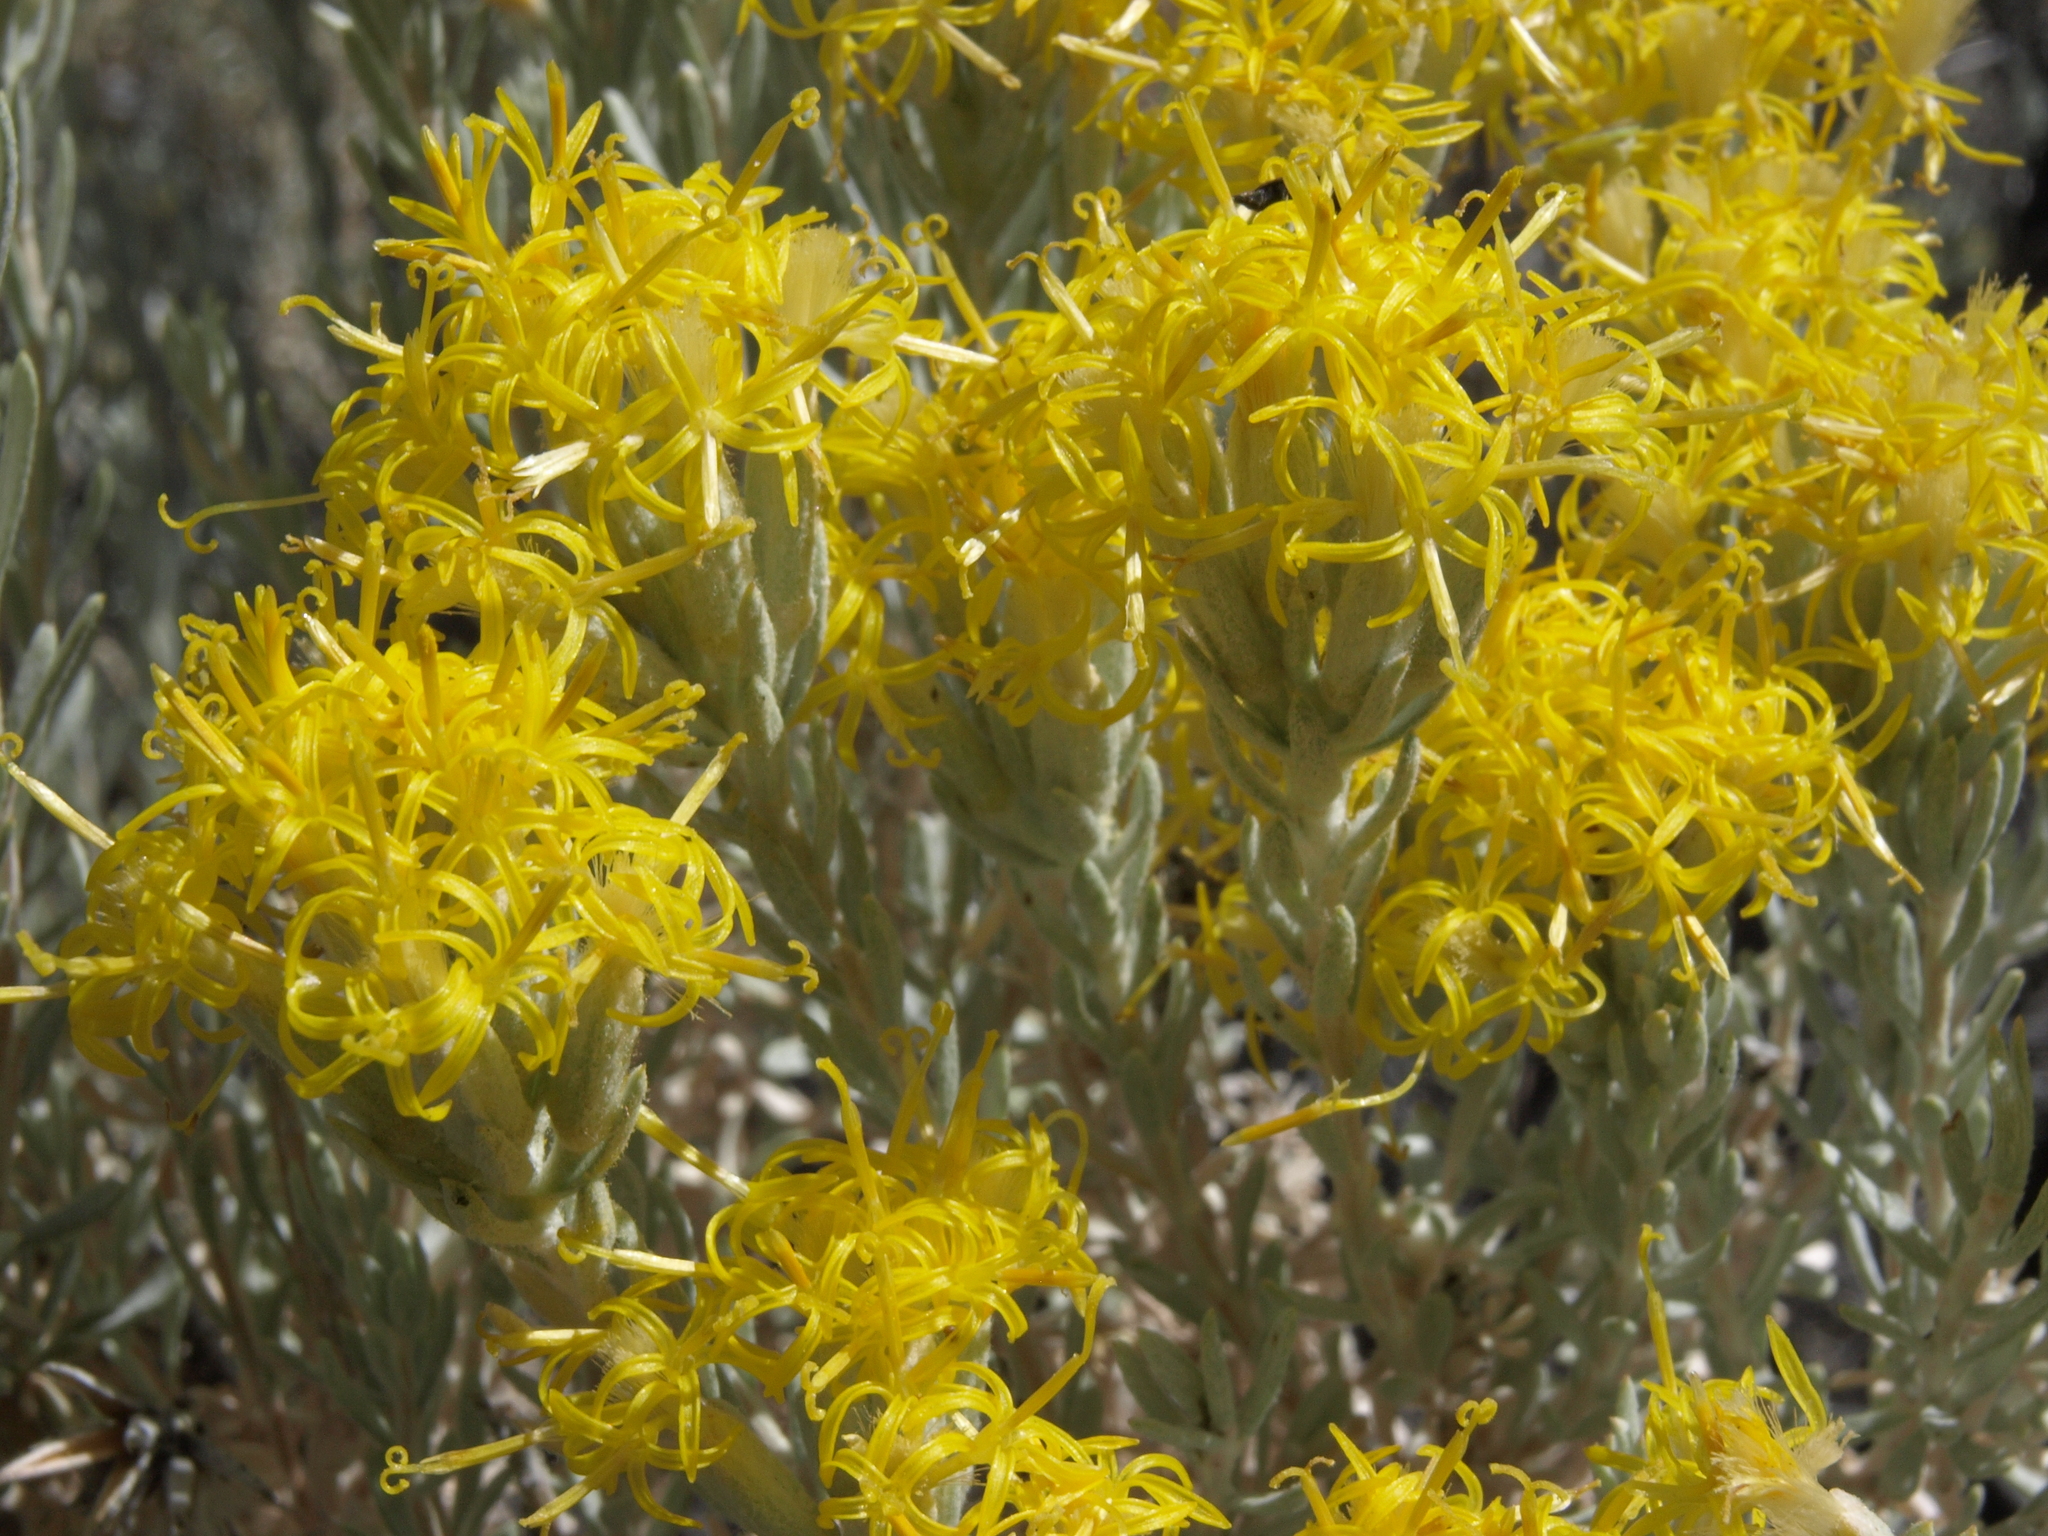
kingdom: Plantae
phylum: Tracheophyta
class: Magnoliopsida
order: Asterales
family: Asteraceae
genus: Tetradymia
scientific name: Tetradymia canescens
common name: Spineless horsebrush
